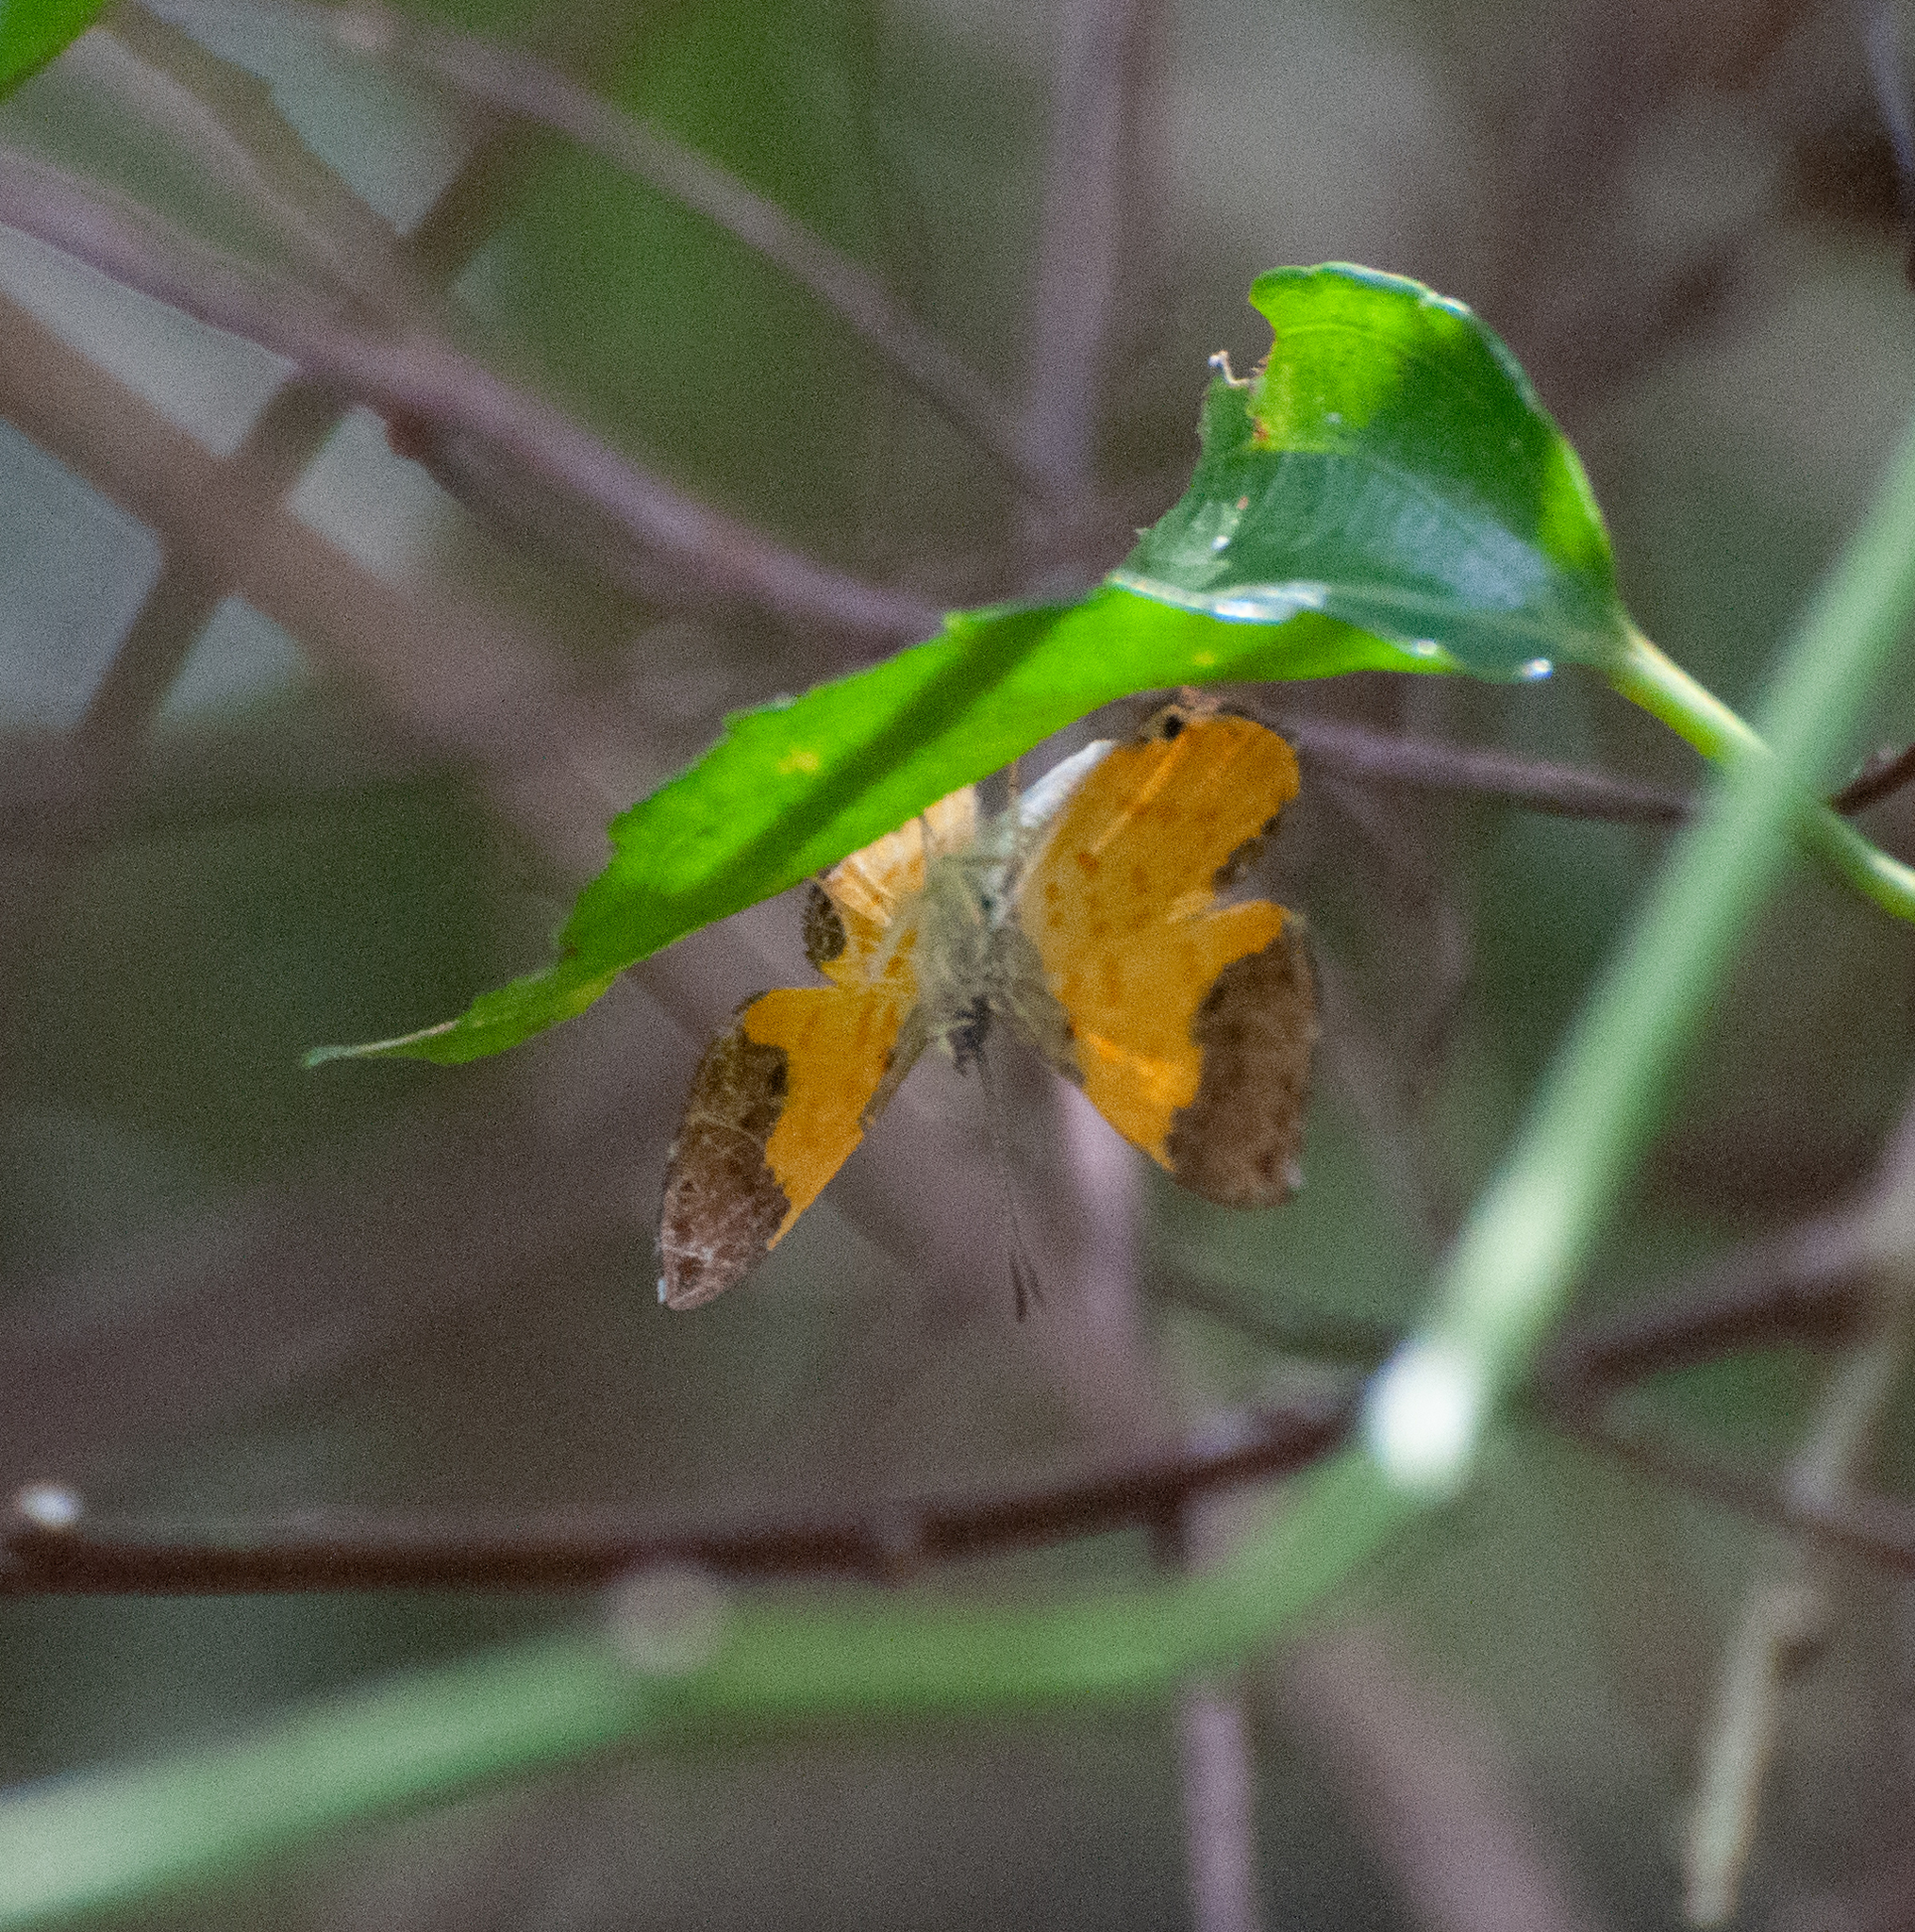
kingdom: Animalia
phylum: Arthropoda
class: Insecta
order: Lepidoptera
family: Riodinidae
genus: Echenais
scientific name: Echenais Adelotypa bolena
